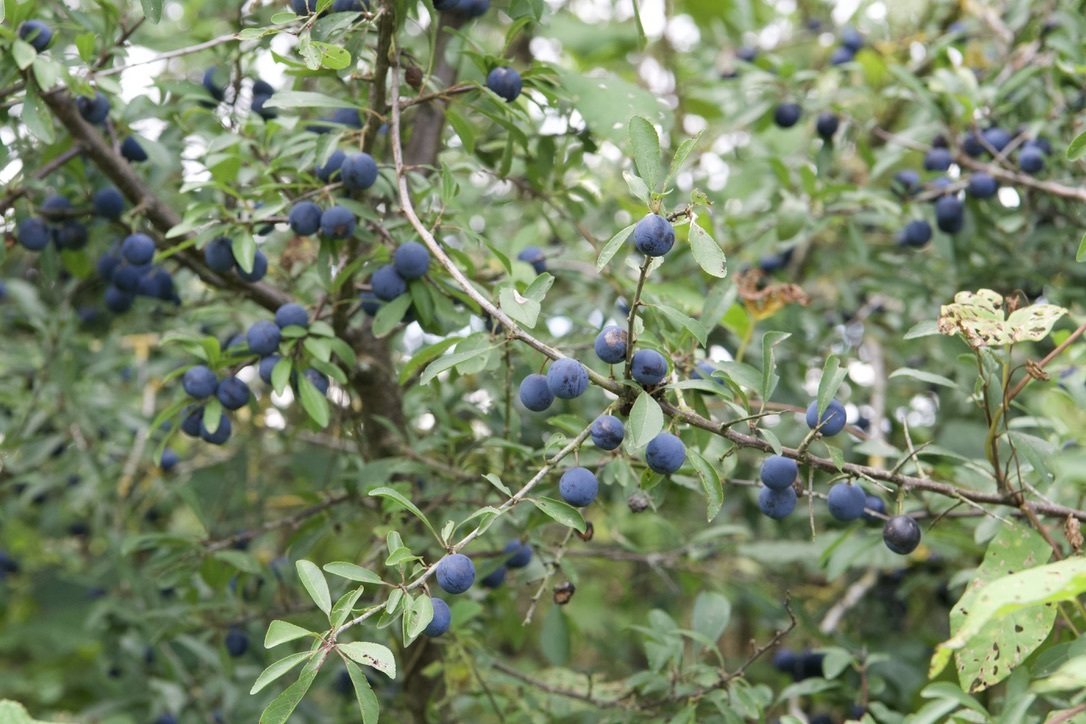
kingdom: Plantae
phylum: Tracheophyta
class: Magnoliopsida
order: Rosales
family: Rosaceae
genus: Prunus
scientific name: Prunus spinosa
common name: Blackthorn
